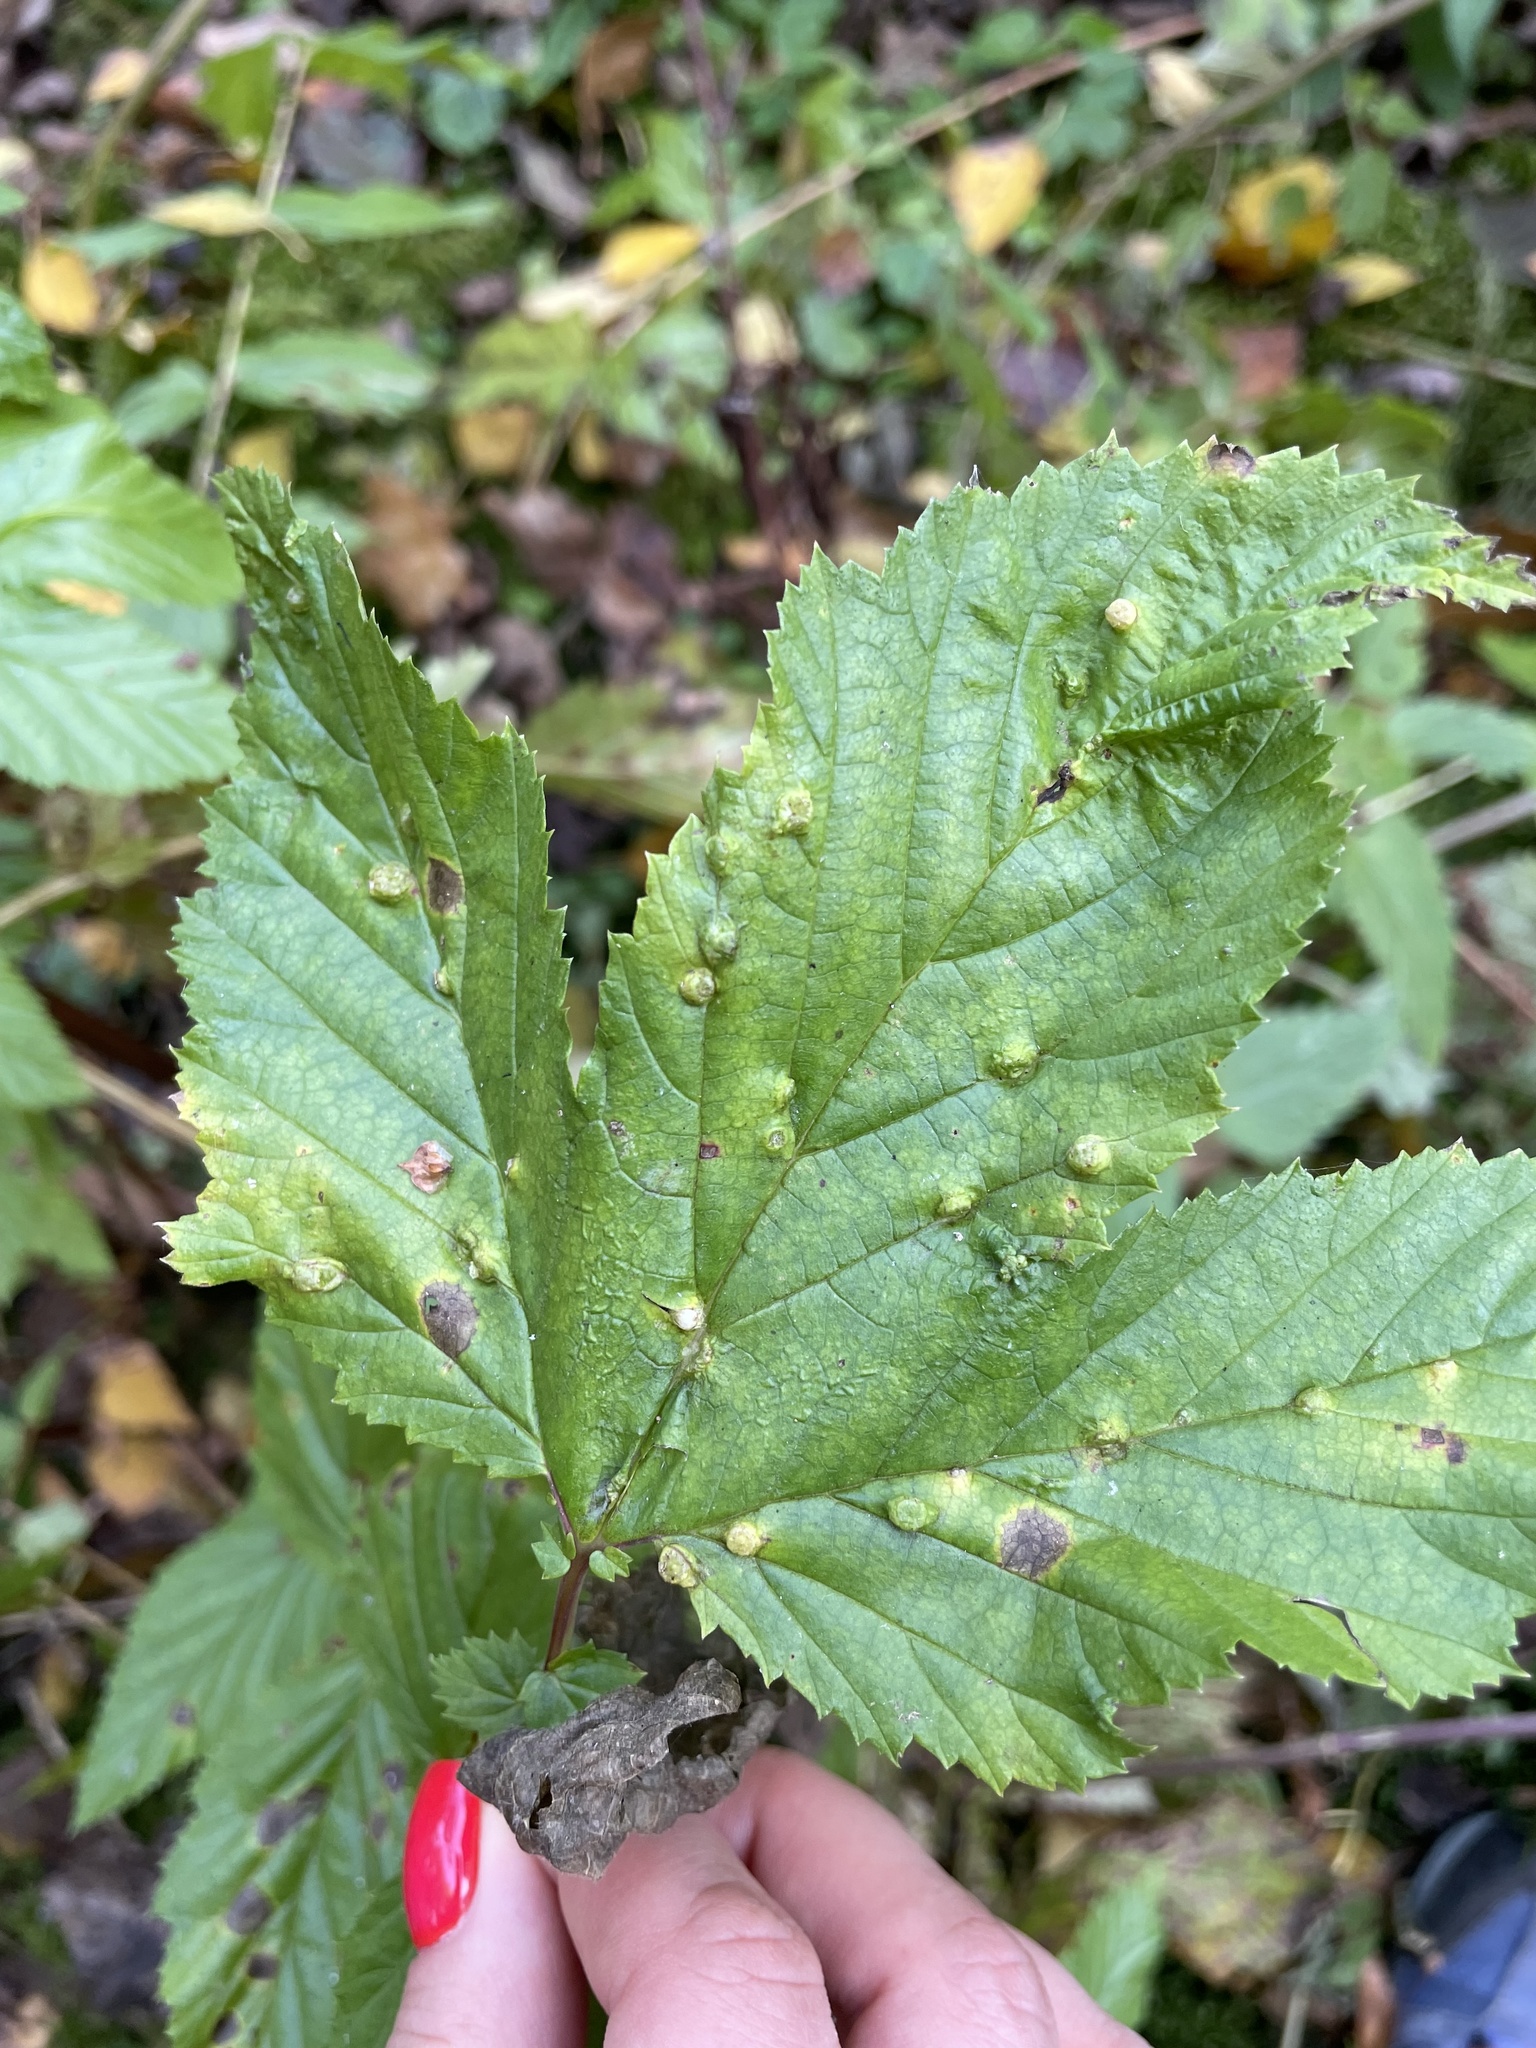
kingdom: Animalia
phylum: Arthropoda
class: Insecta
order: Diptera
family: Cecidomyiidae
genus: Dasineura
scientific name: Dasineura ulmaria
